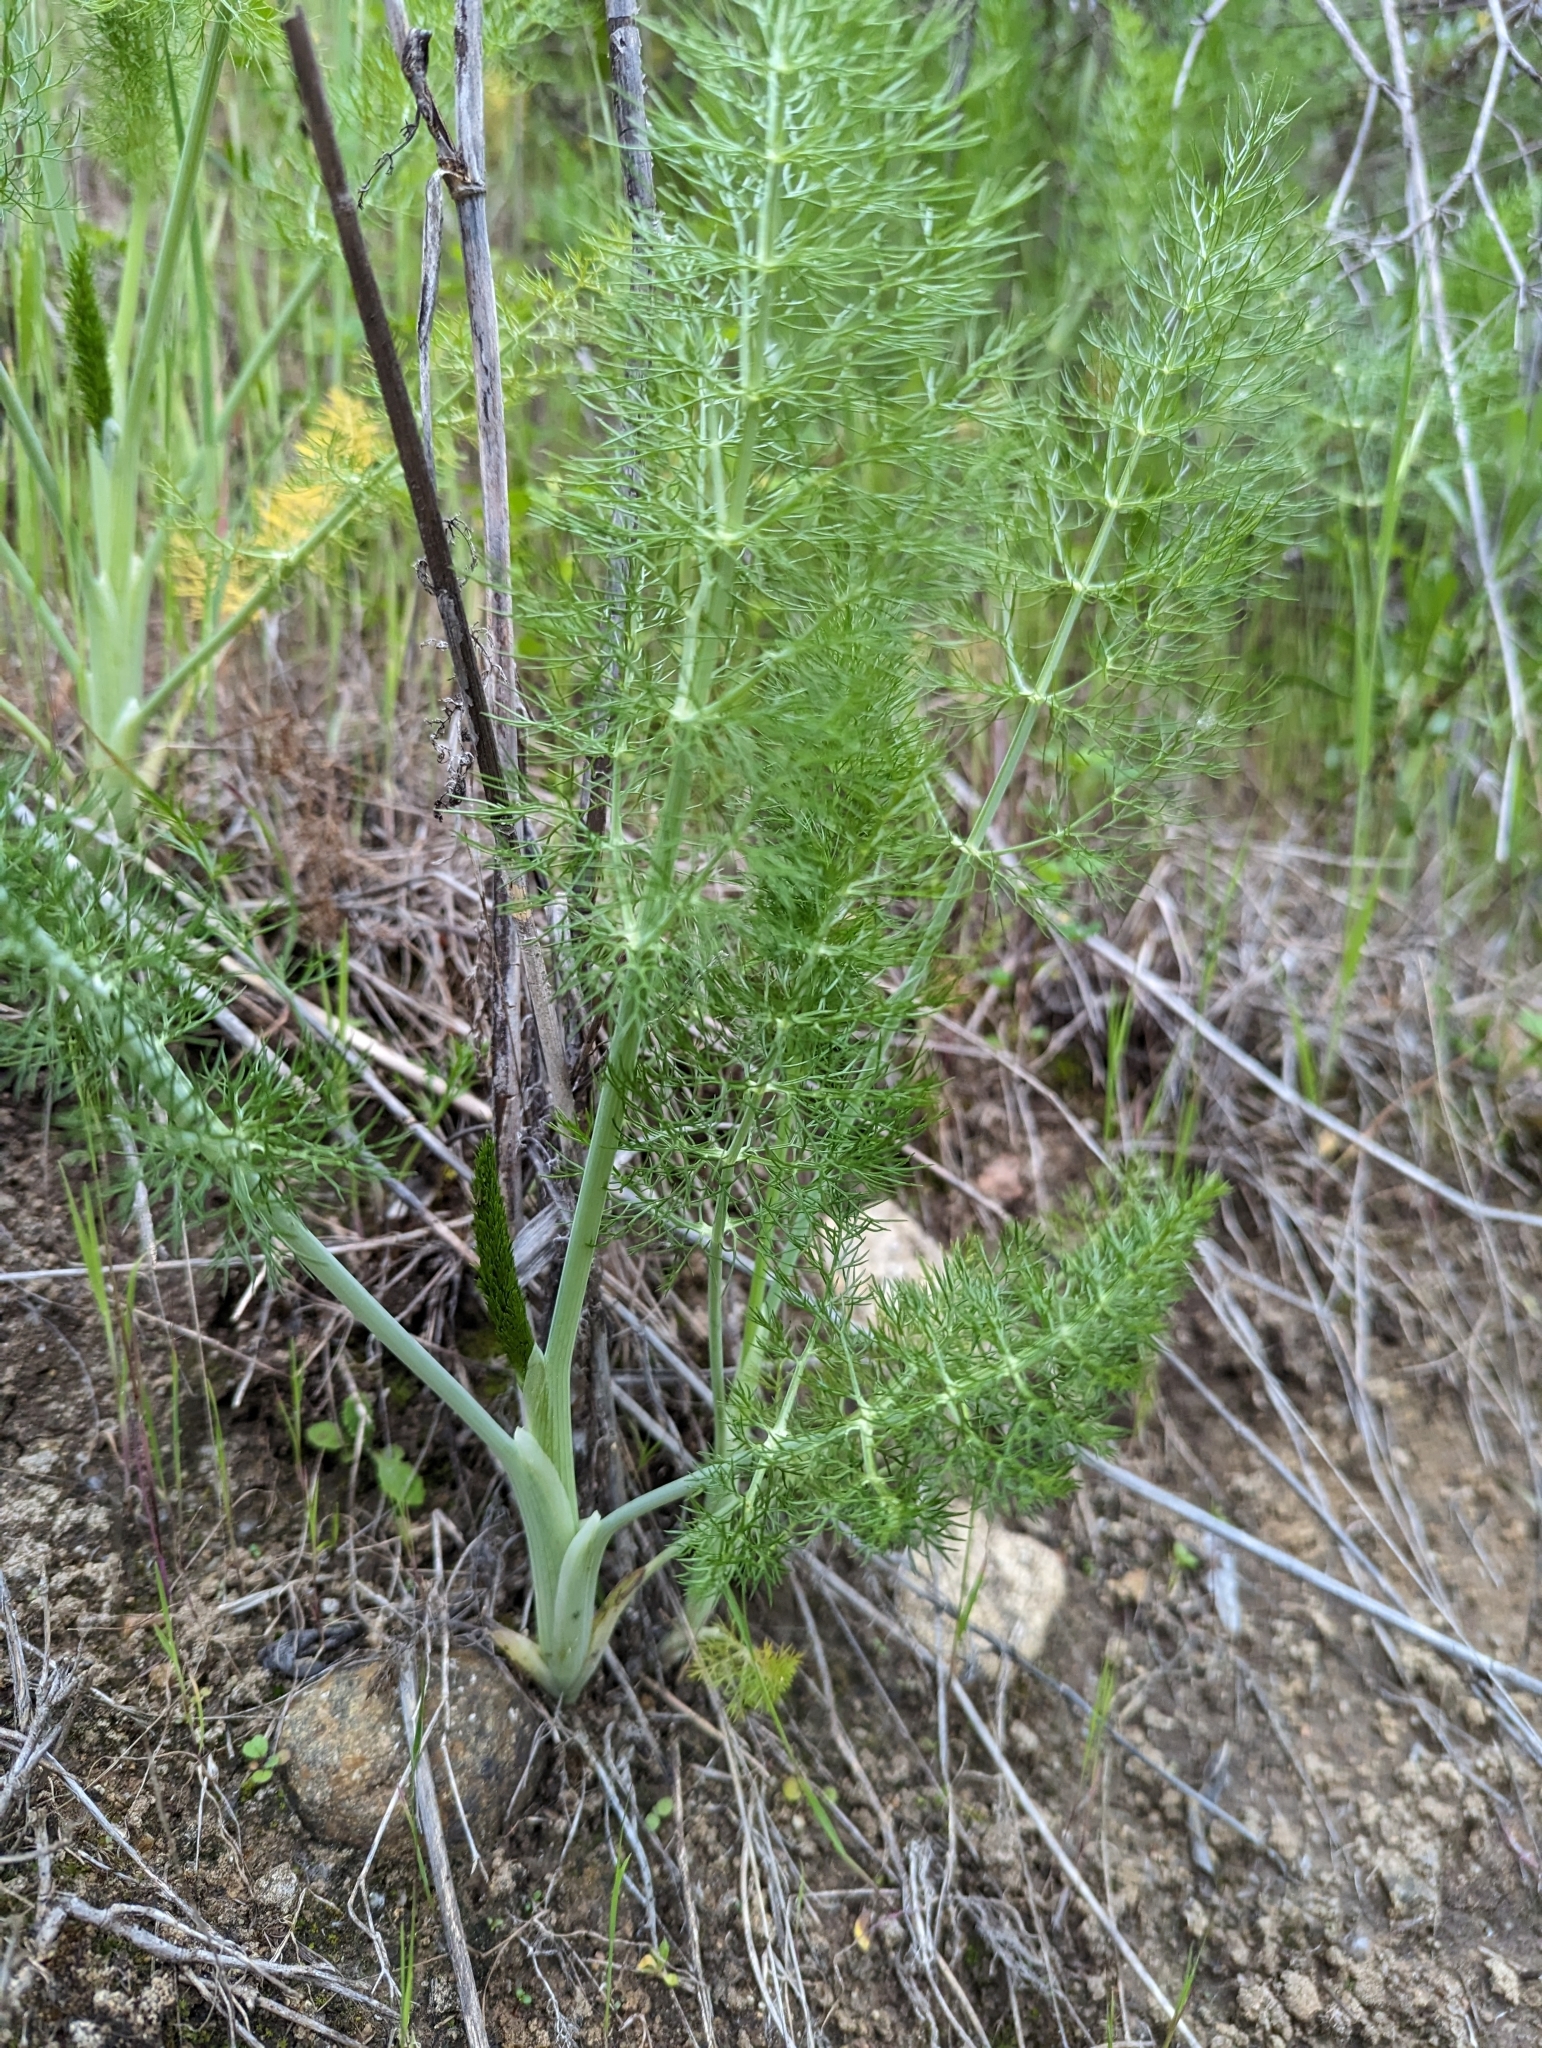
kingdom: Plantae
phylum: Tracheophyta
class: Magnoliopsida
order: Apiales
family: Apiaceae
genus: Foeniculum
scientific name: Foeniculum vulgare
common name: Fennel
